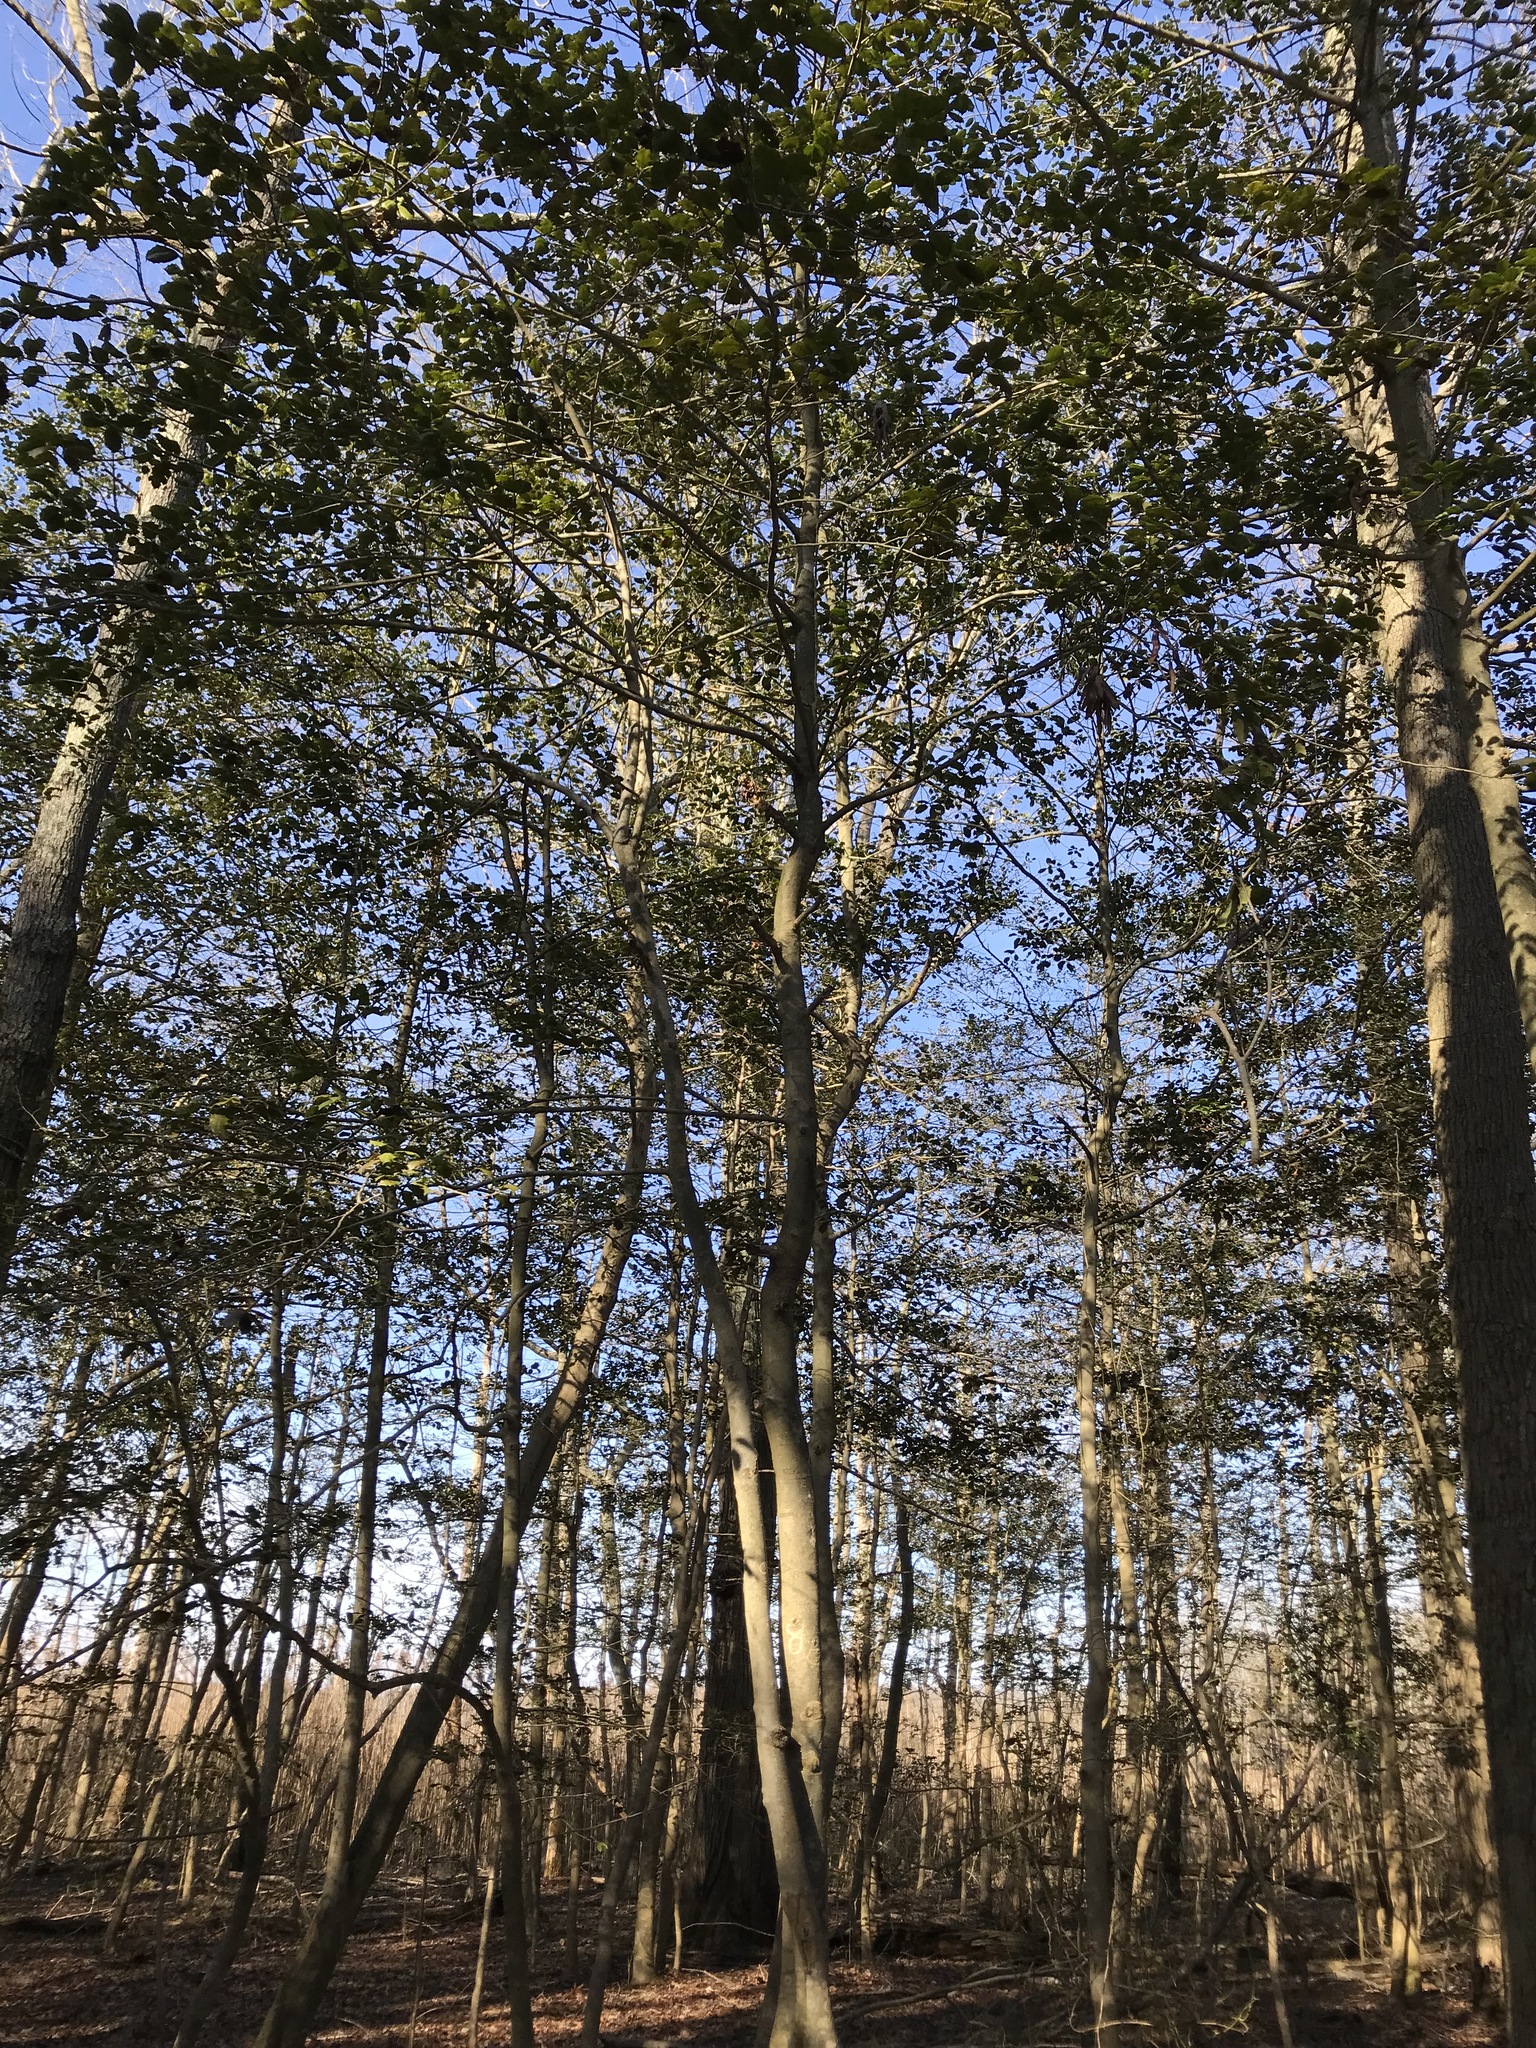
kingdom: Plantae
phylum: Tracheophyta
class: Magnoliopsida
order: Aquifoliales
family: Aquifoliaceae
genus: Ilex
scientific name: Ilex opaca
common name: American holly
